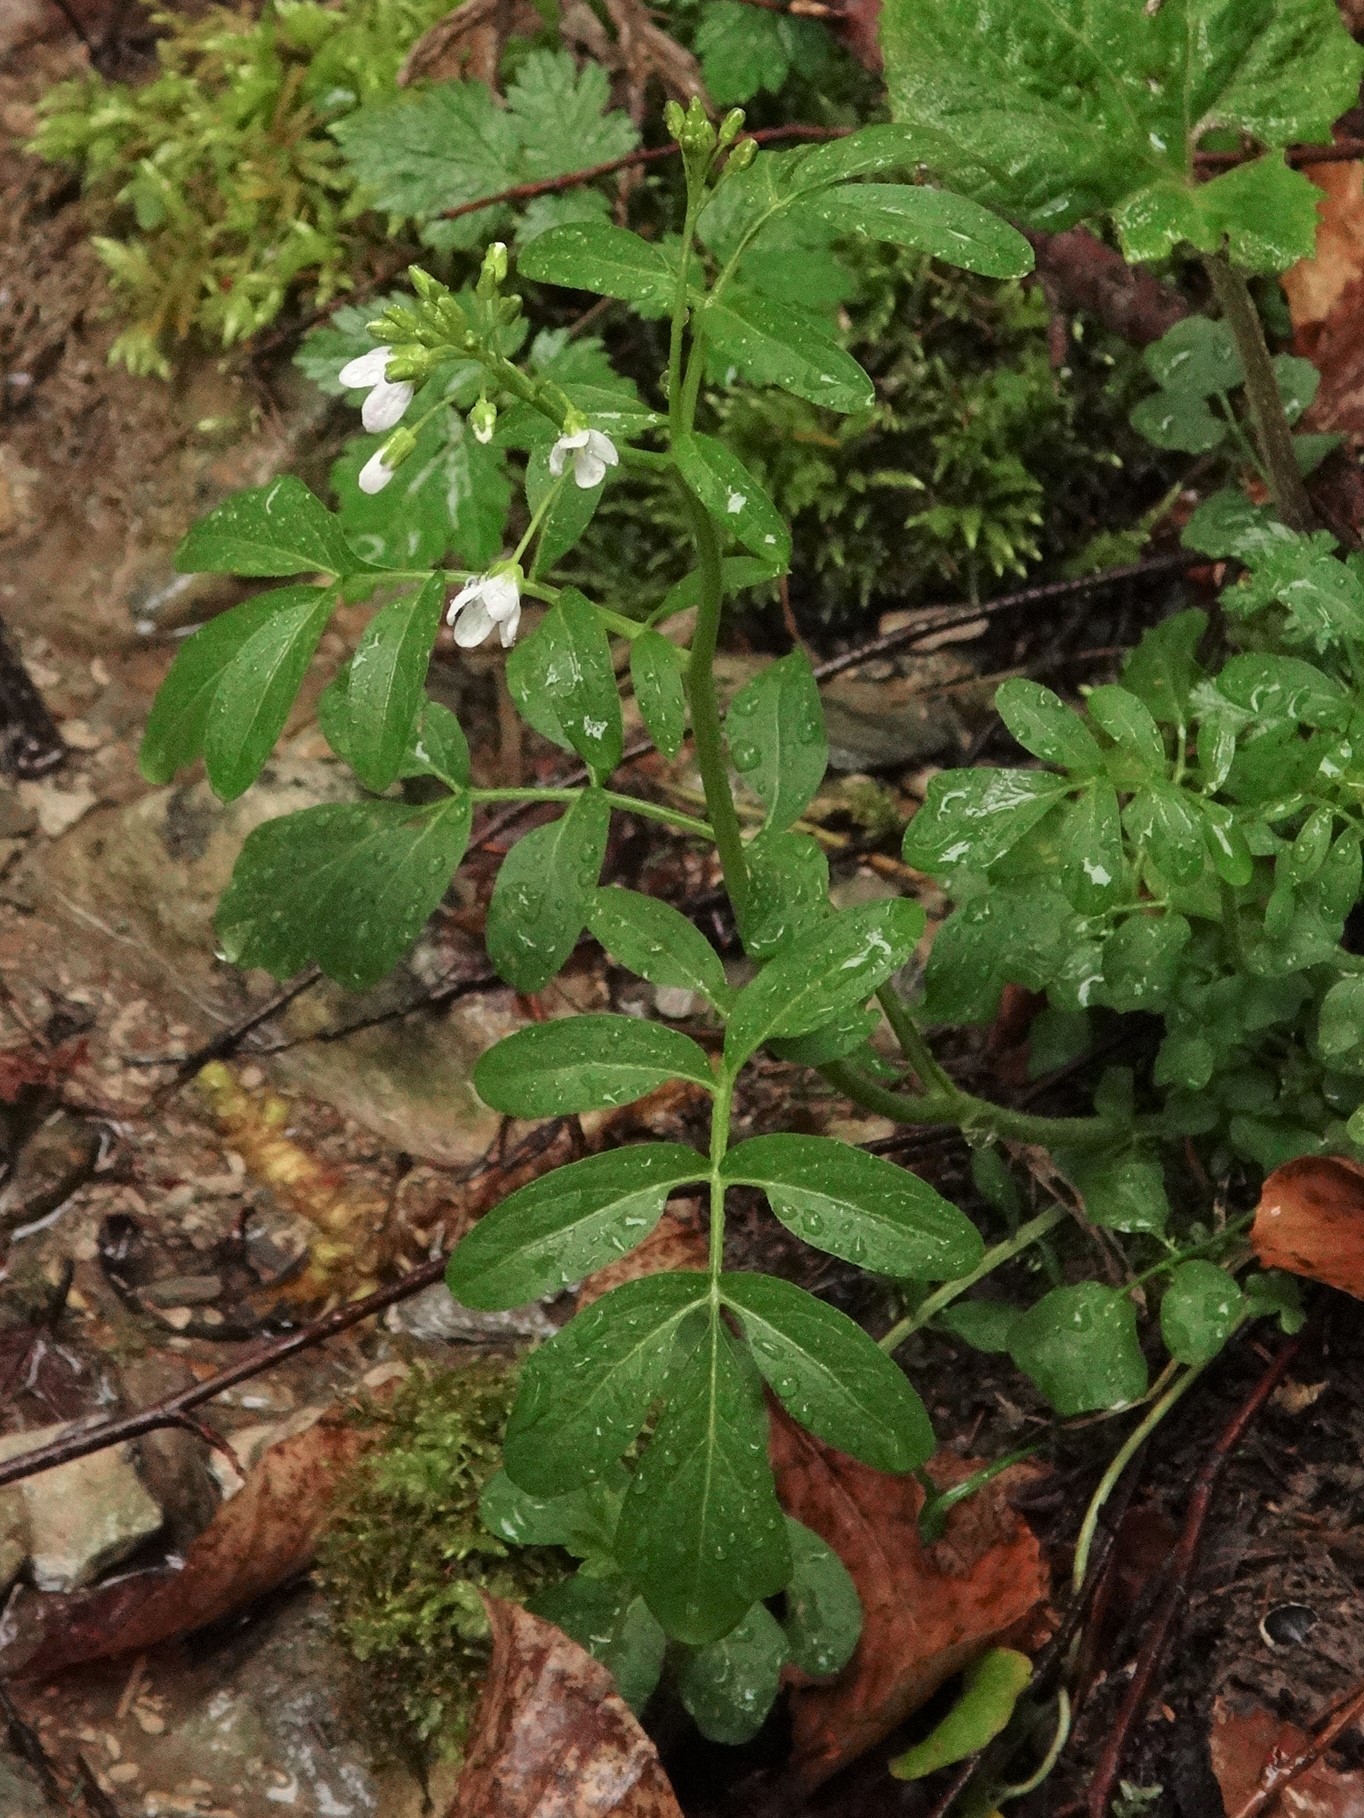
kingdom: Plantae
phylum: Tracheophyta
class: Magnoliopsida
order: Brassicales
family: Brassicaceae
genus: Cardamine
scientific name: Cardamine amara
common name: Large bitter-cress
